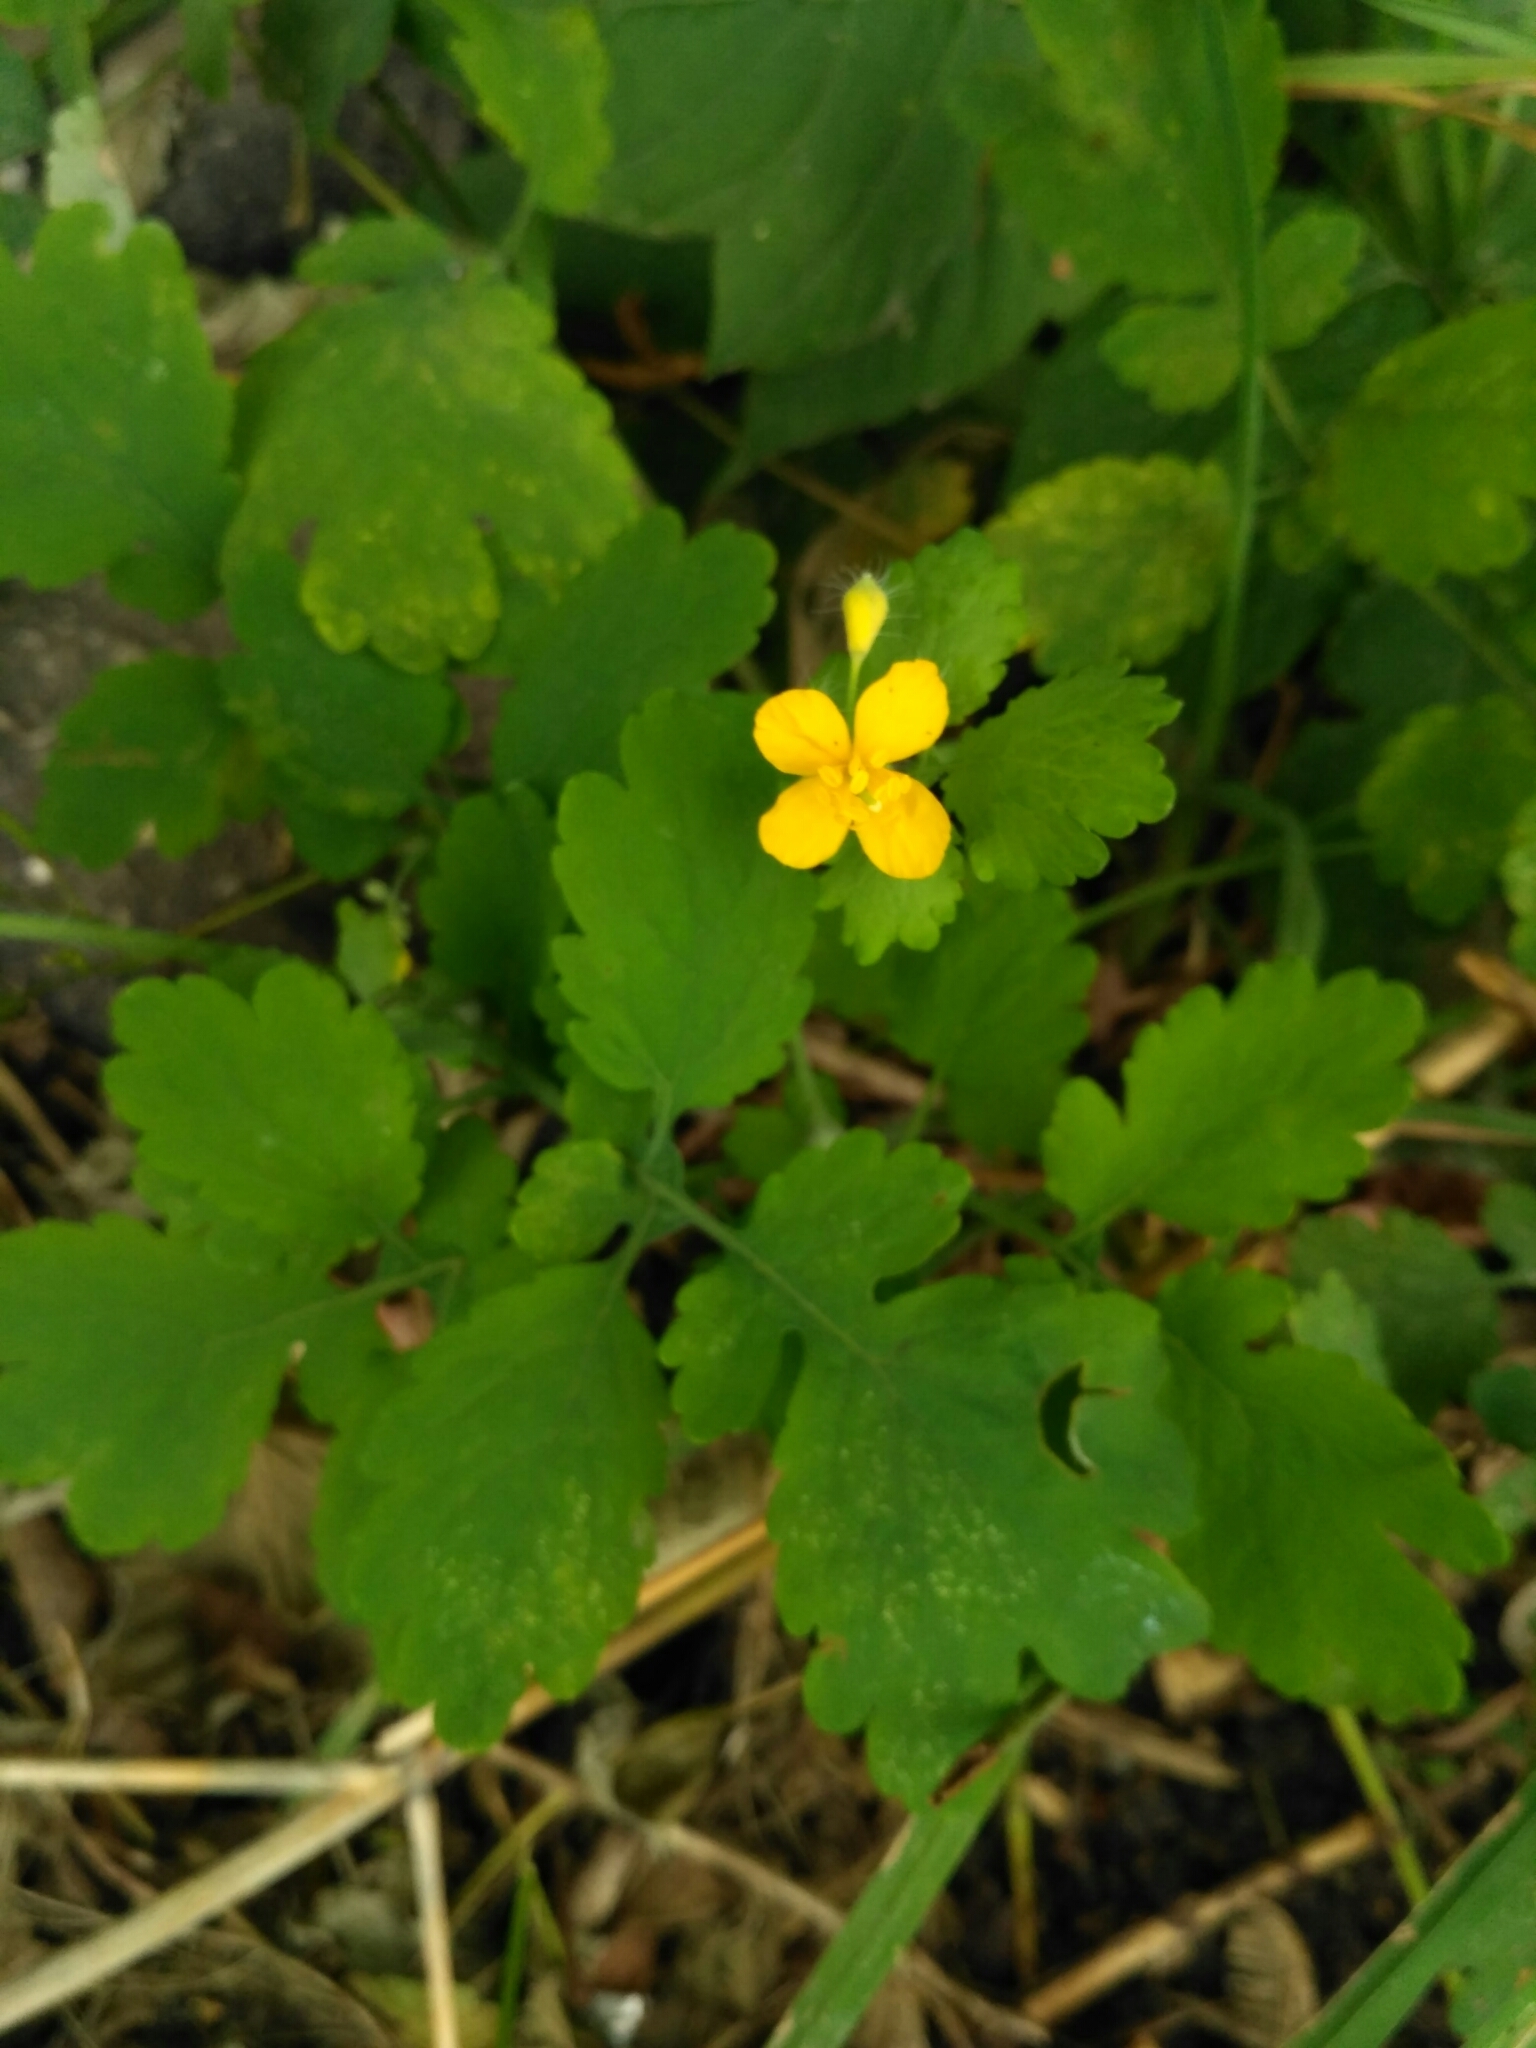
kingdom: Plantae
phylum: Tracheophyta
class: Magnoliopsida
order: Ranunculales
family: Papaveraceae
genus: Chelidonium
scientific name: Chelidonium majus
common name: Greater celandine
